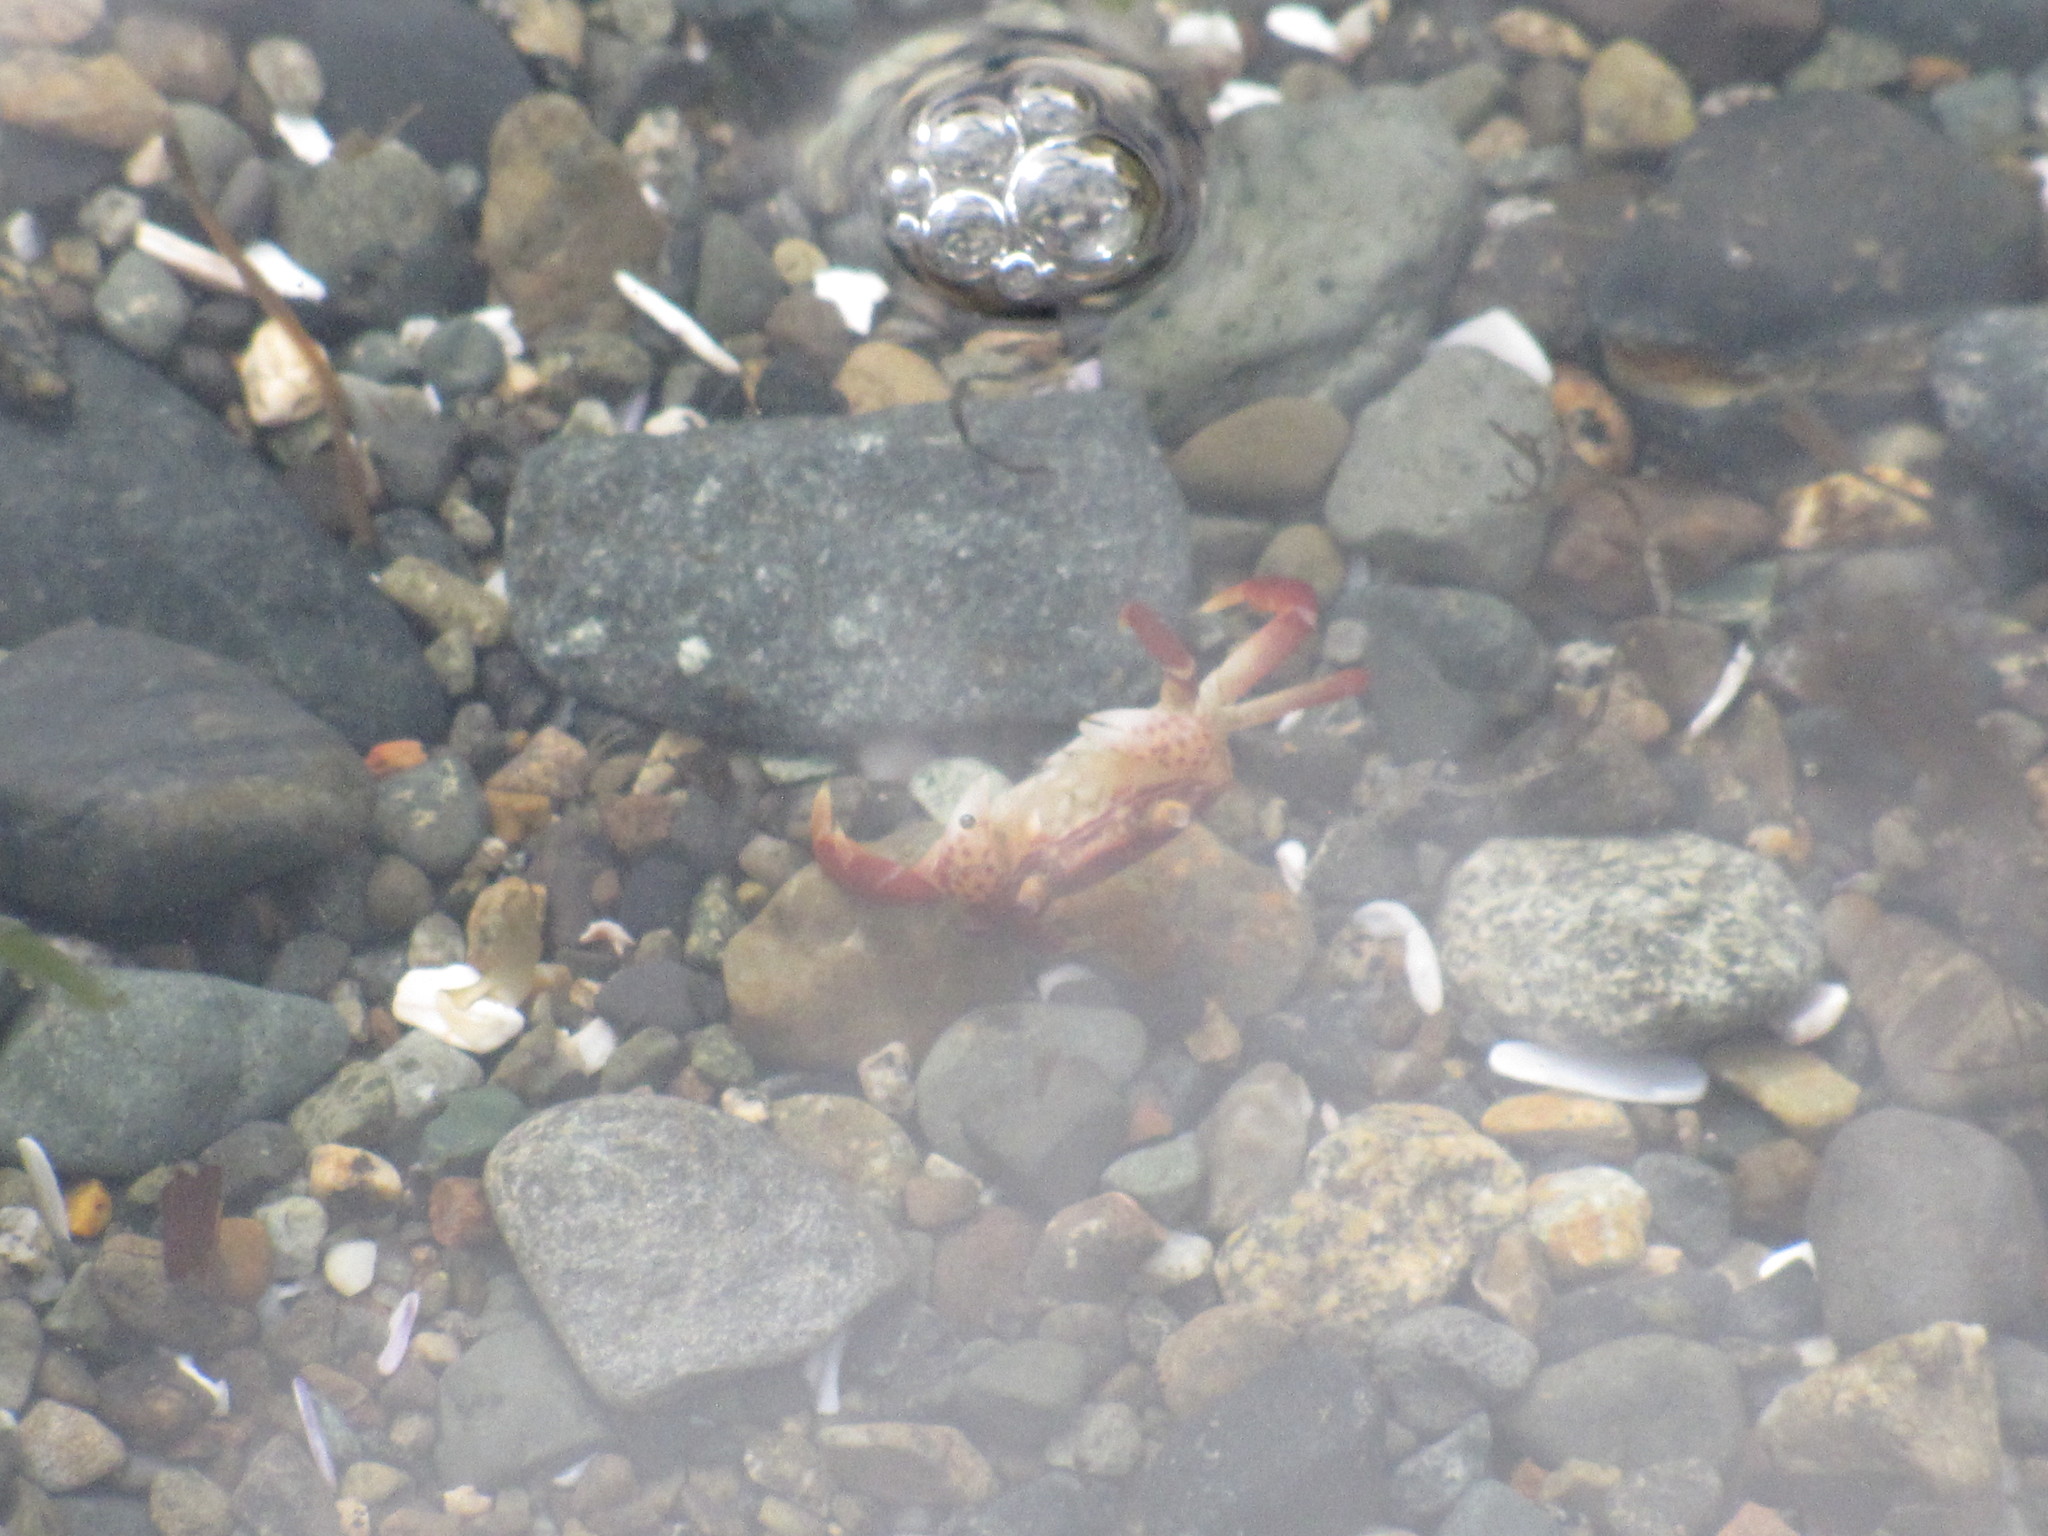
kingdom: Animalia
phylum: Arthropoda
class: Malacostraca
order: Decapoda
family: Varunidae
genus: Hemigrapsus
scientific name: Hemigrapsus nudus
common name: Purple shore crab
